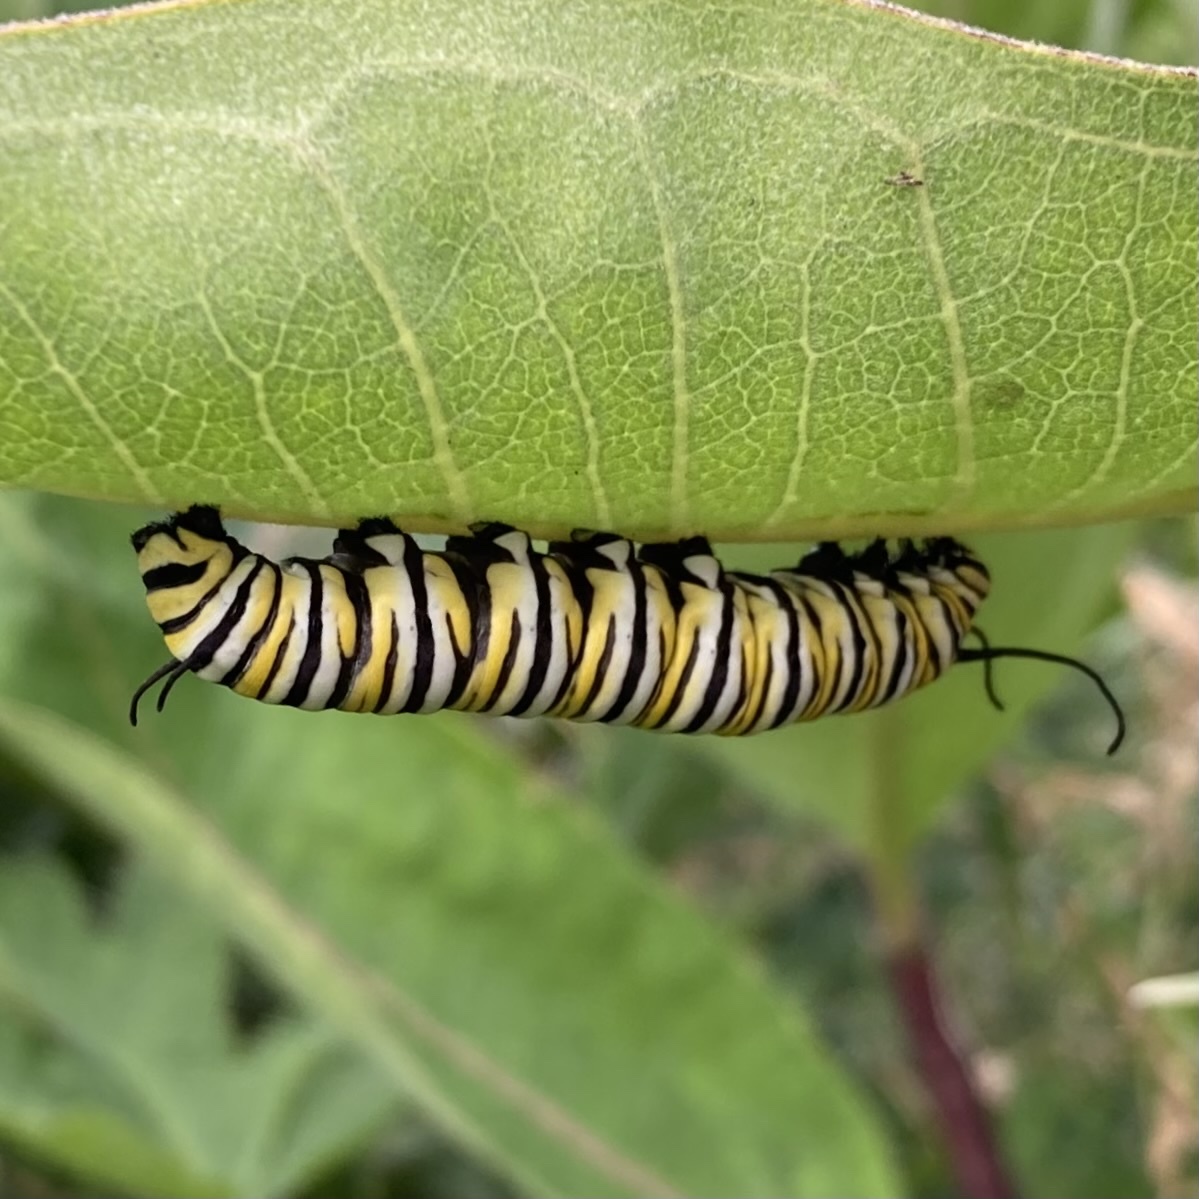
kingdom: Animalia
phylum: Arthropoda
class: Insecta
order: Lepidoptera
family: Nymphalidae
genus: Danaus
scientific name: Danaus plexippus
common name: Monarch
